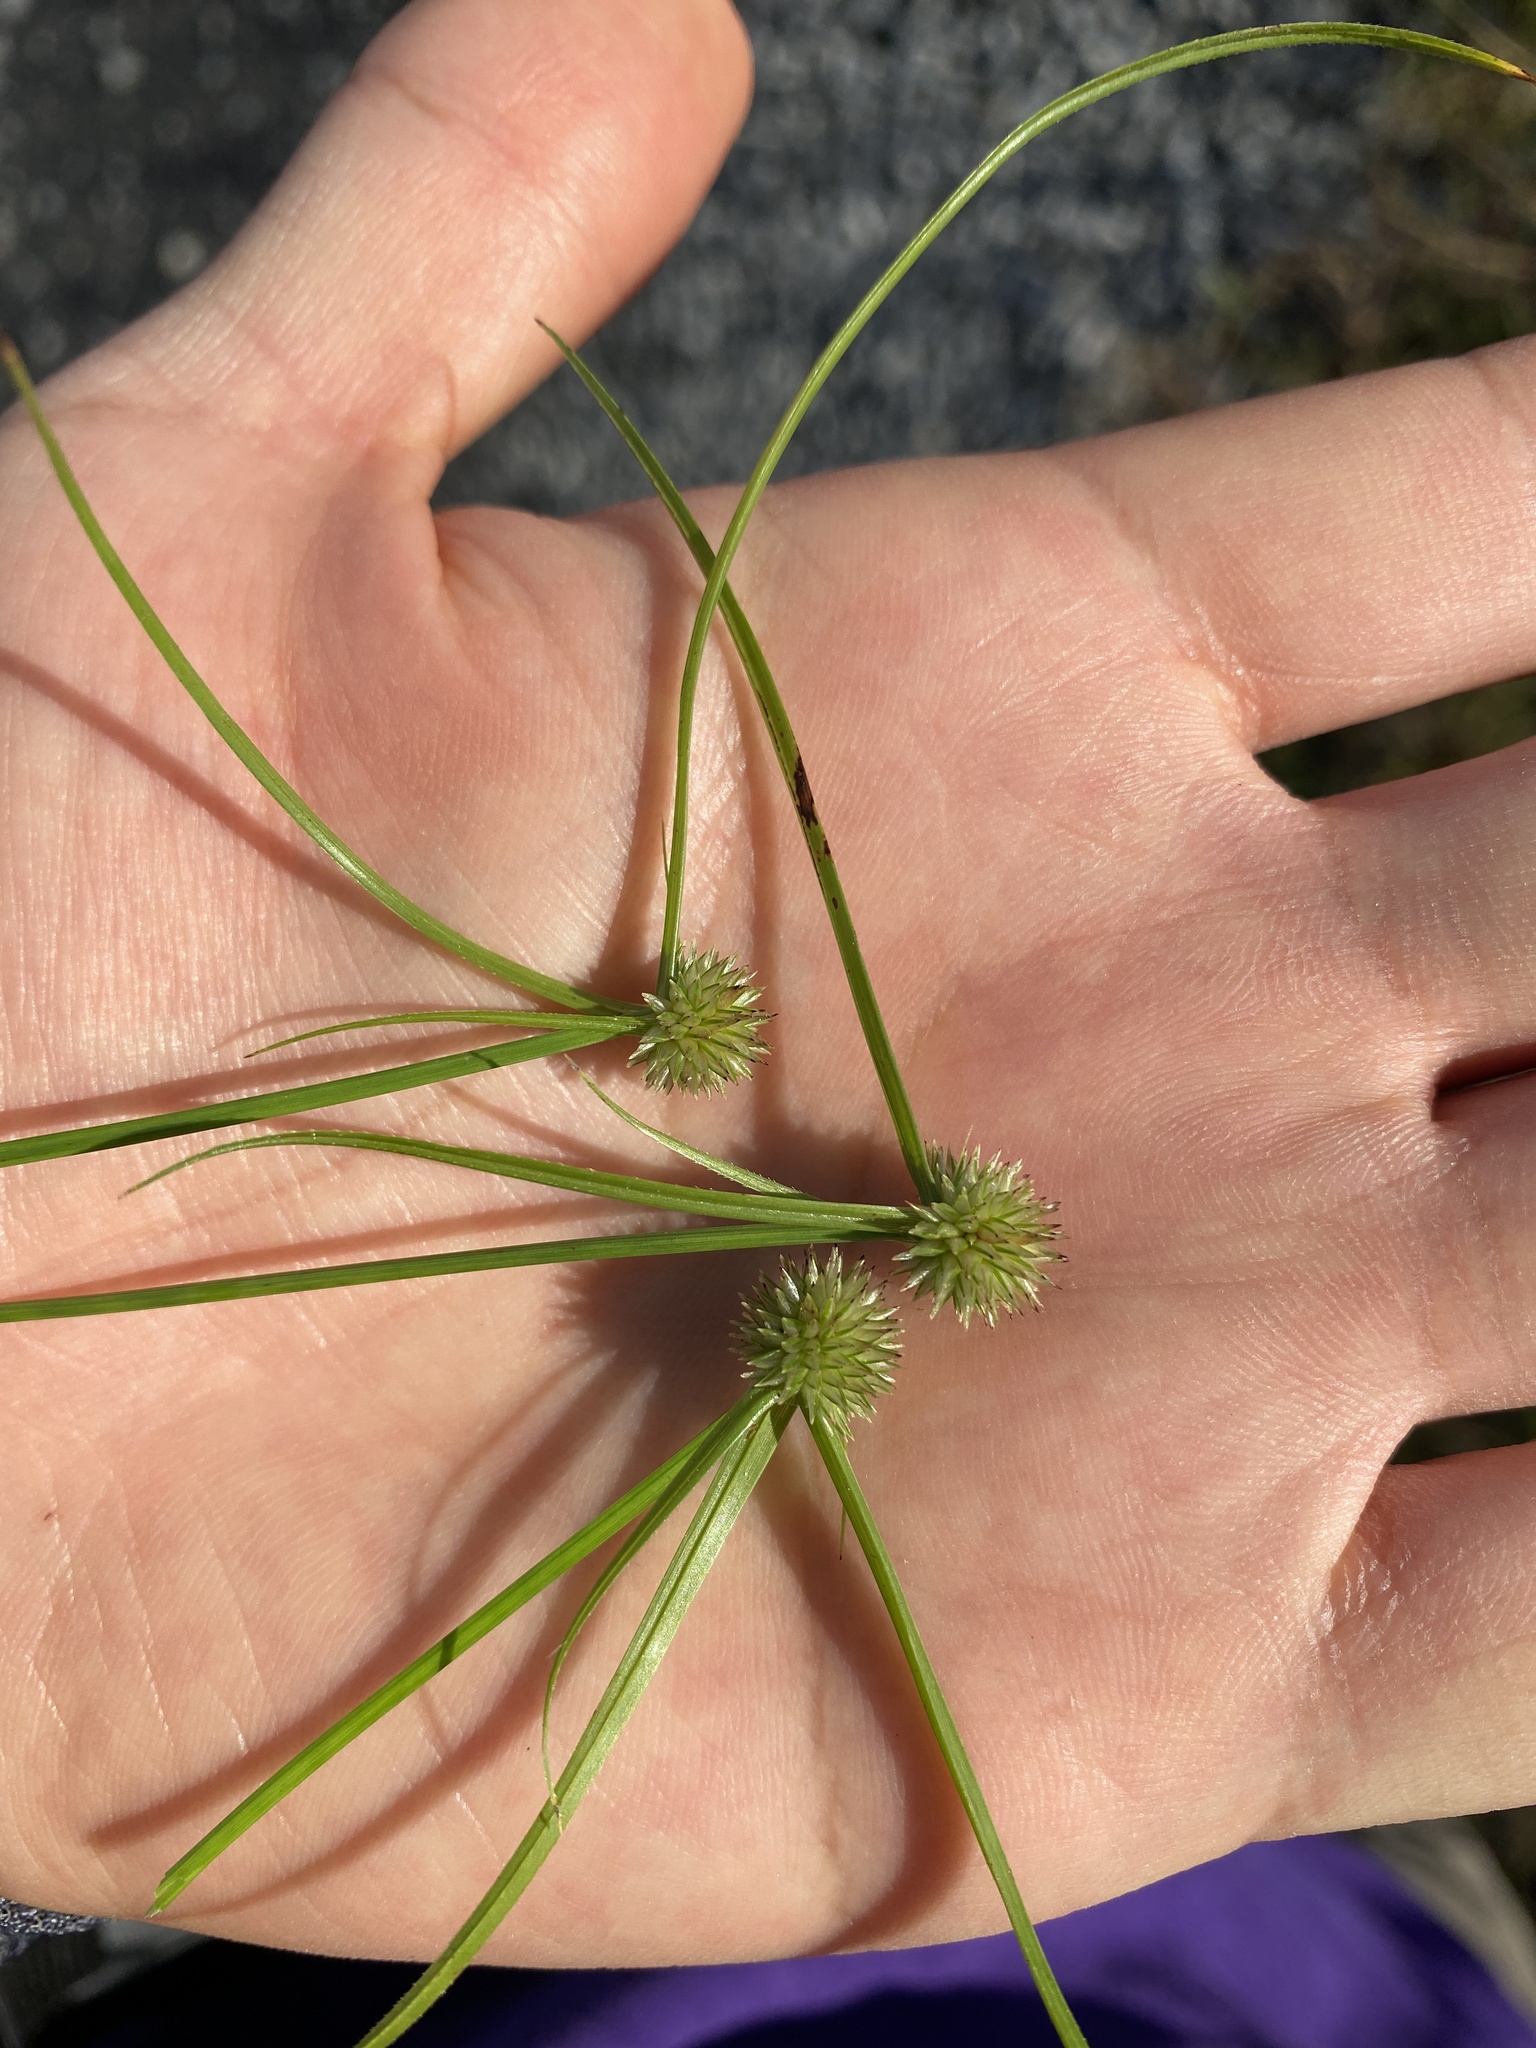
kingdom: Plantae
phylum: Tracheophyta
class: Liliopsida
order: Poales
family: Cyperaceae
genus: Cyperus
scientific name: Cyperus brevifolioides
